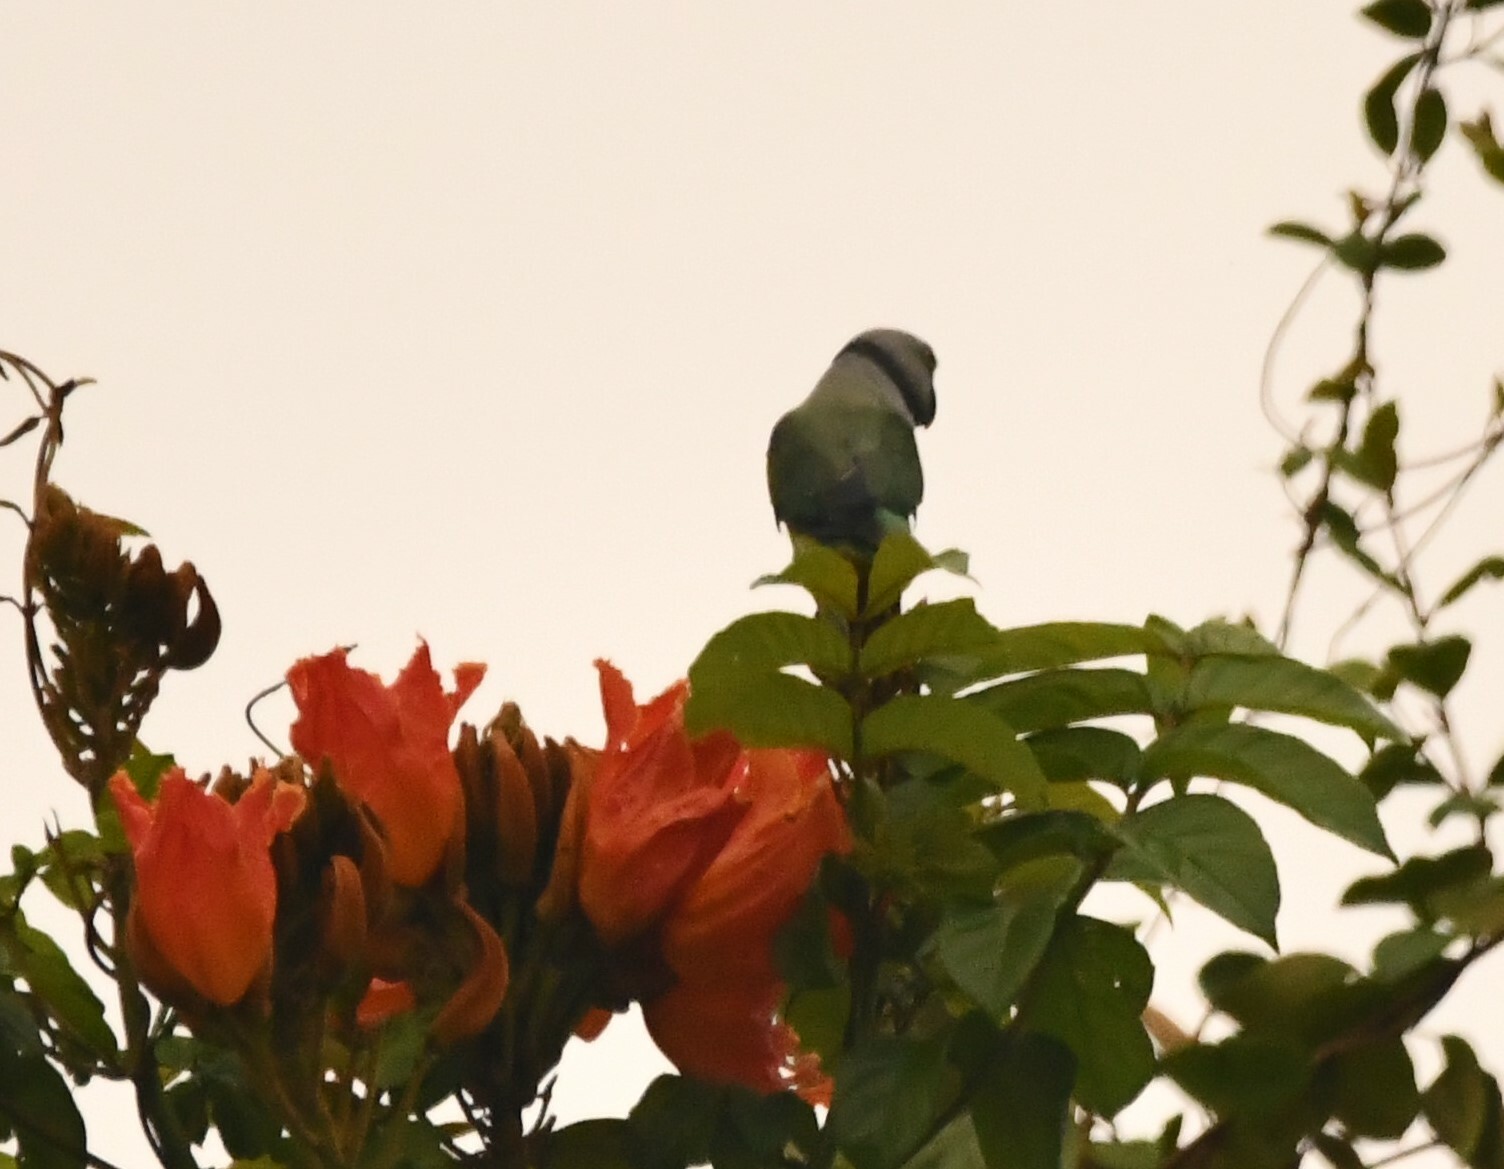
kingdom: Animalia
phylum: Chordata
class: Aves
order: Psittaciformes
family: Psittacidae
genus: Psittacula
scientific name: Psittacula columboides
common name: Blue-winged parakeet
